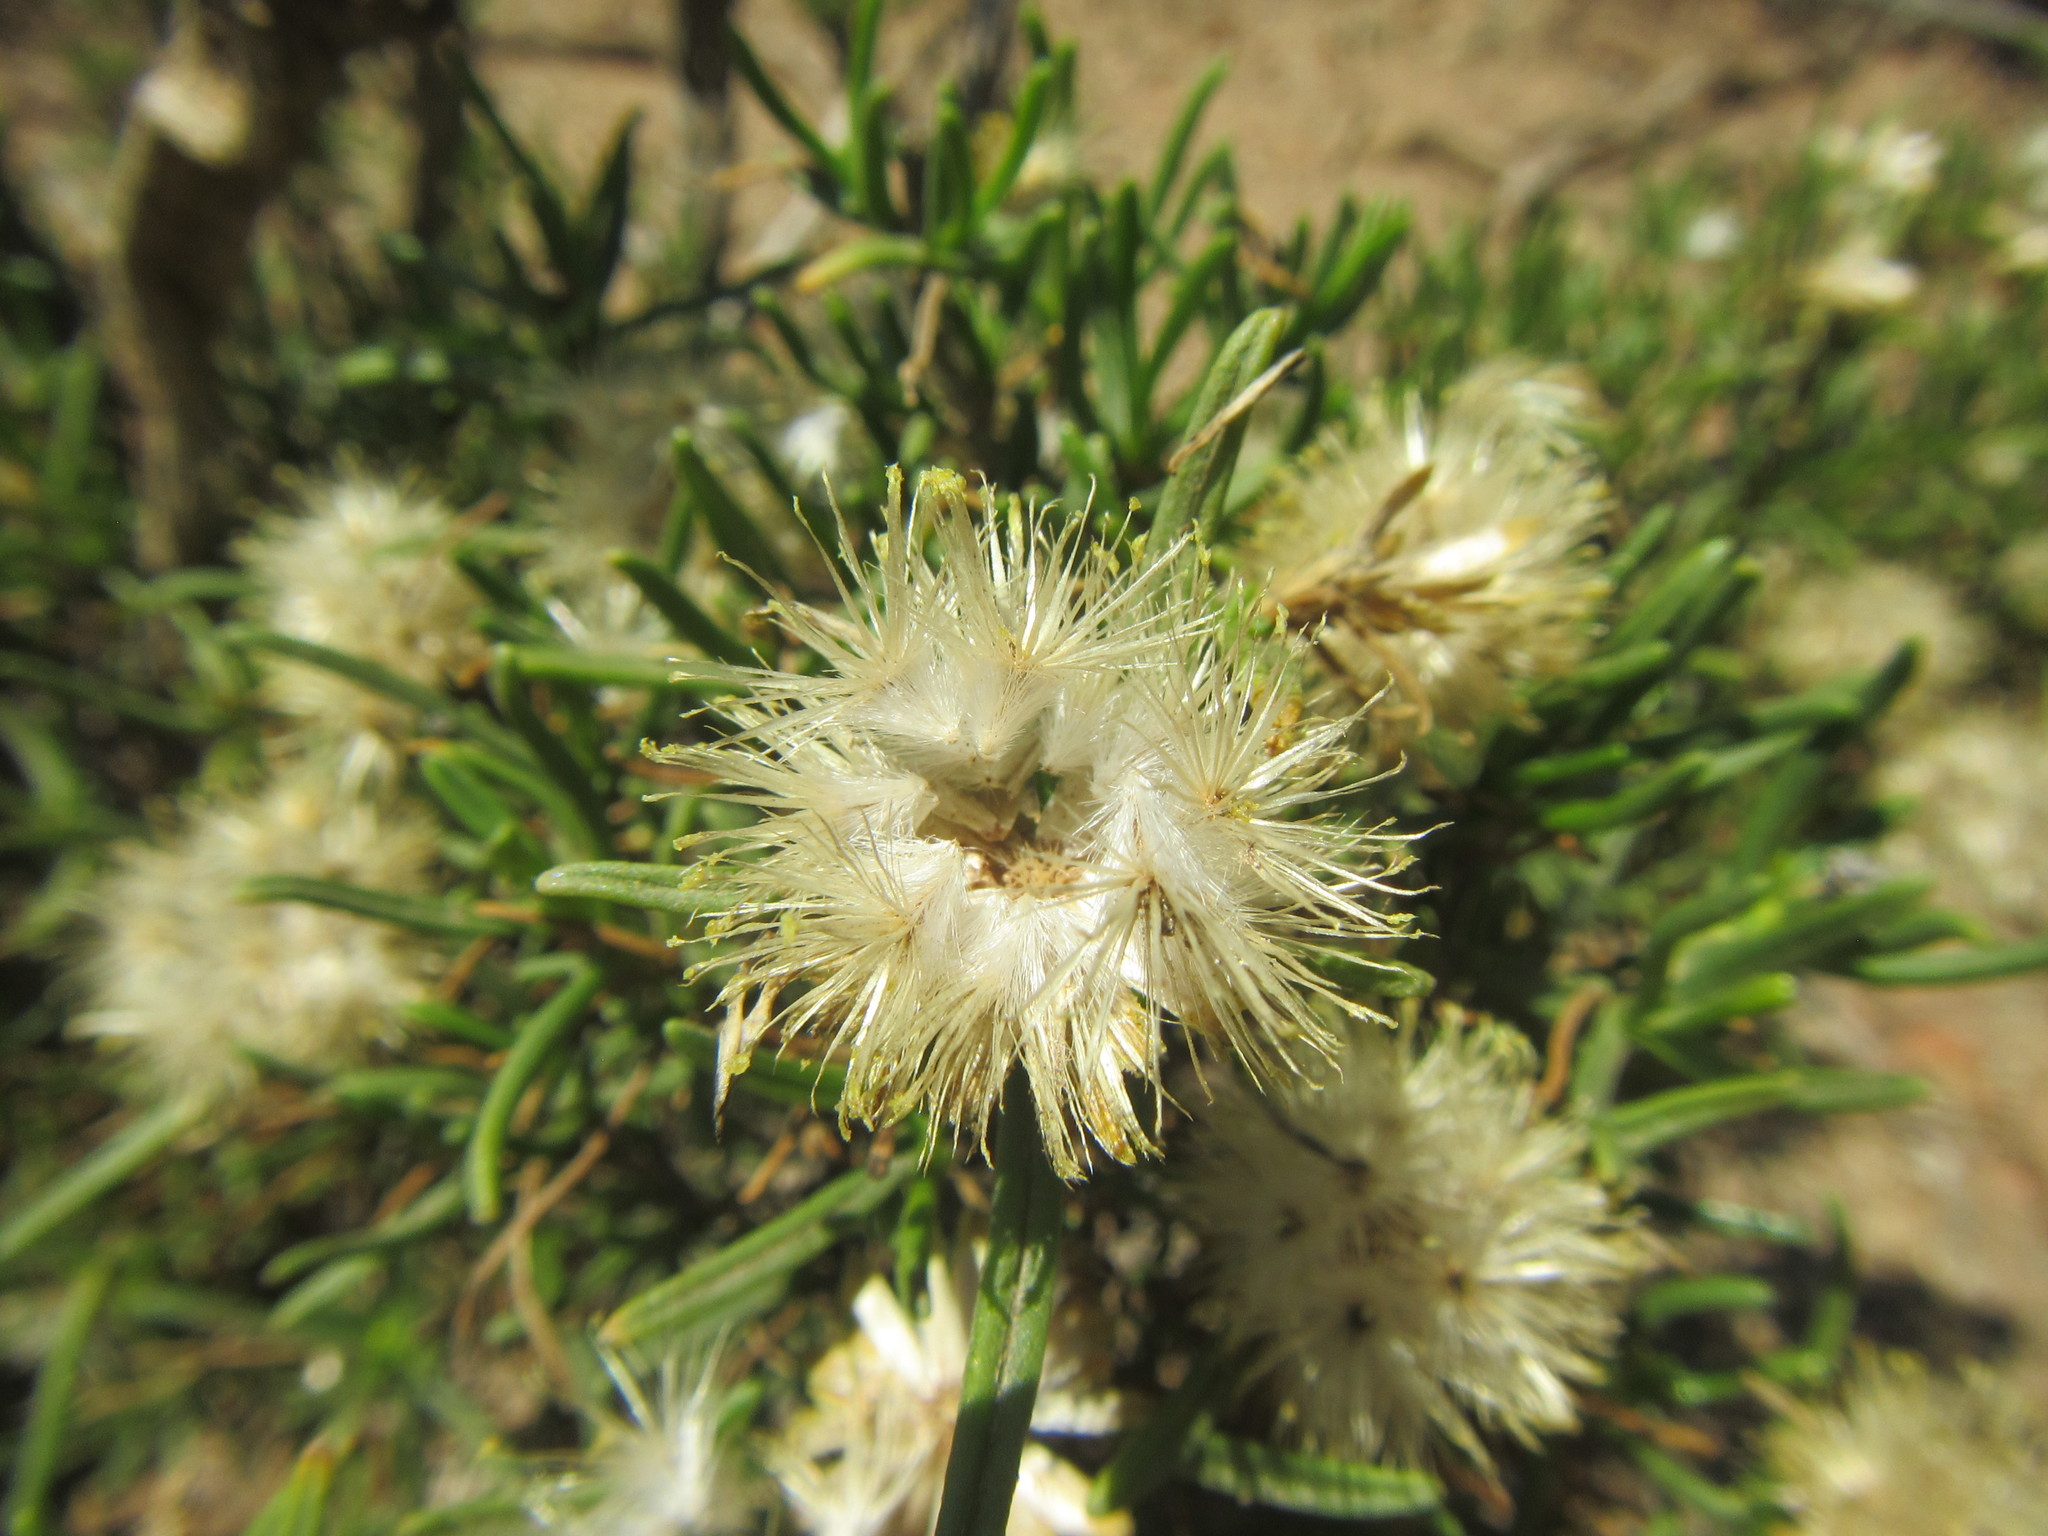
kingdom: Plantae
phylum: Tracheophyta
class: Magnoliopsida
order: Asterales
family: Asteraceae
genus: Pteronia
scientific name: Pteronia pallens
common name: Scholtzbush
